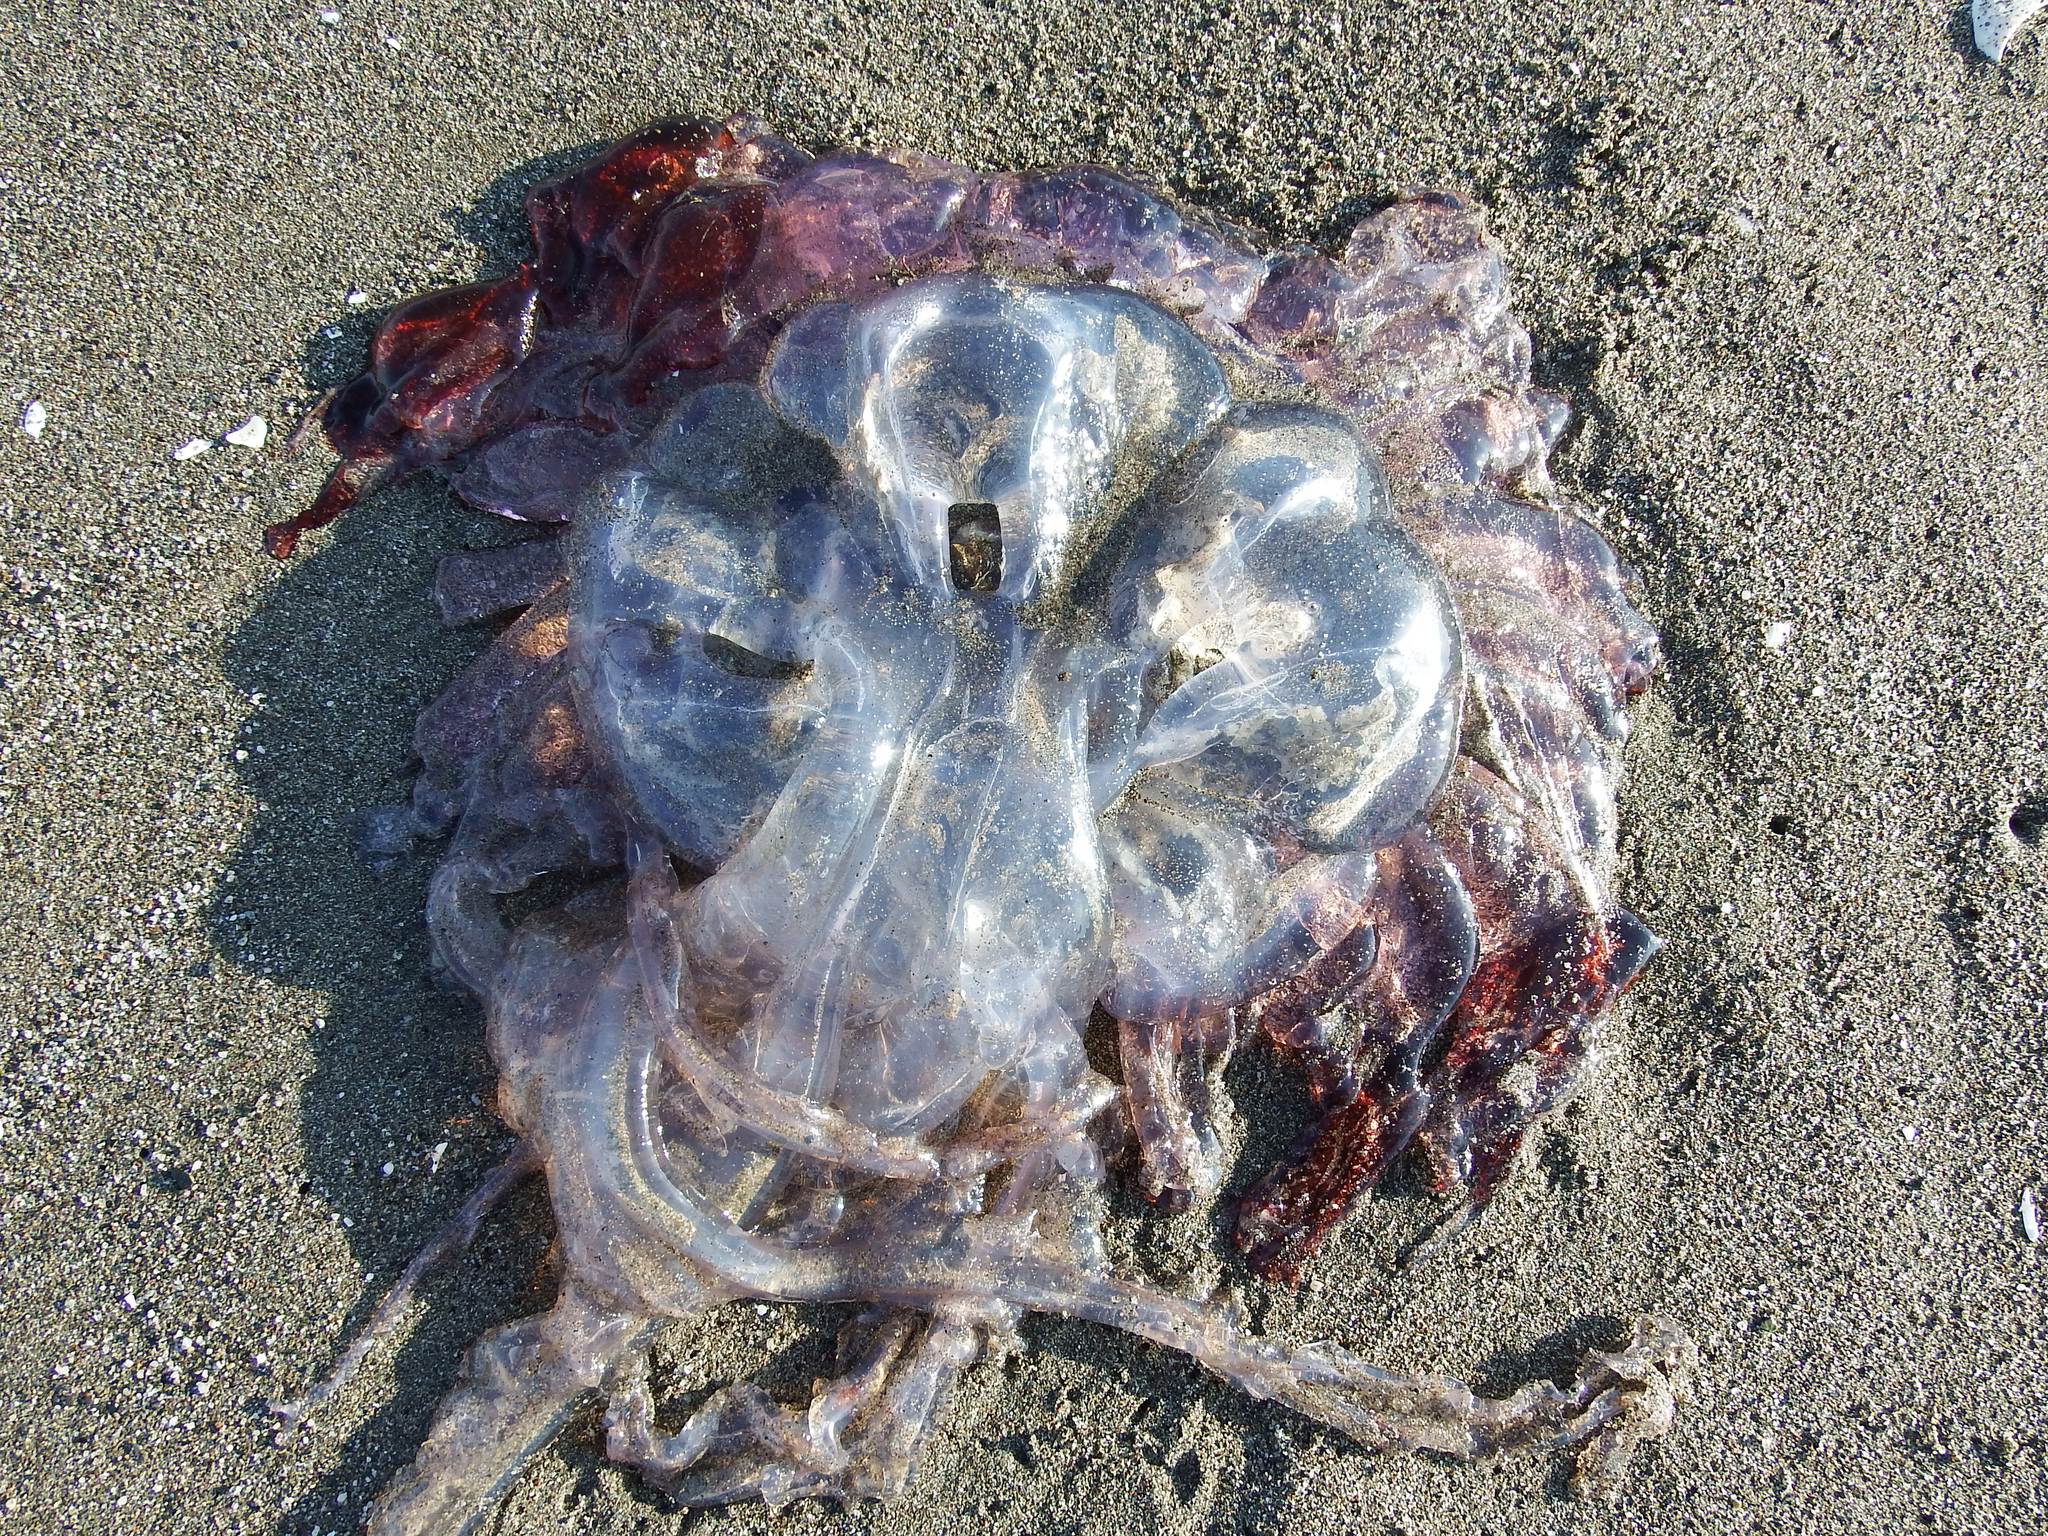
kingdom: Animalia
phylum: Cnidaria
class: Scyphozoa
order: Semaeostomeae
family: Pelagiidae
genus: Chrysaora
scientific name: Chrysaora plocamia
